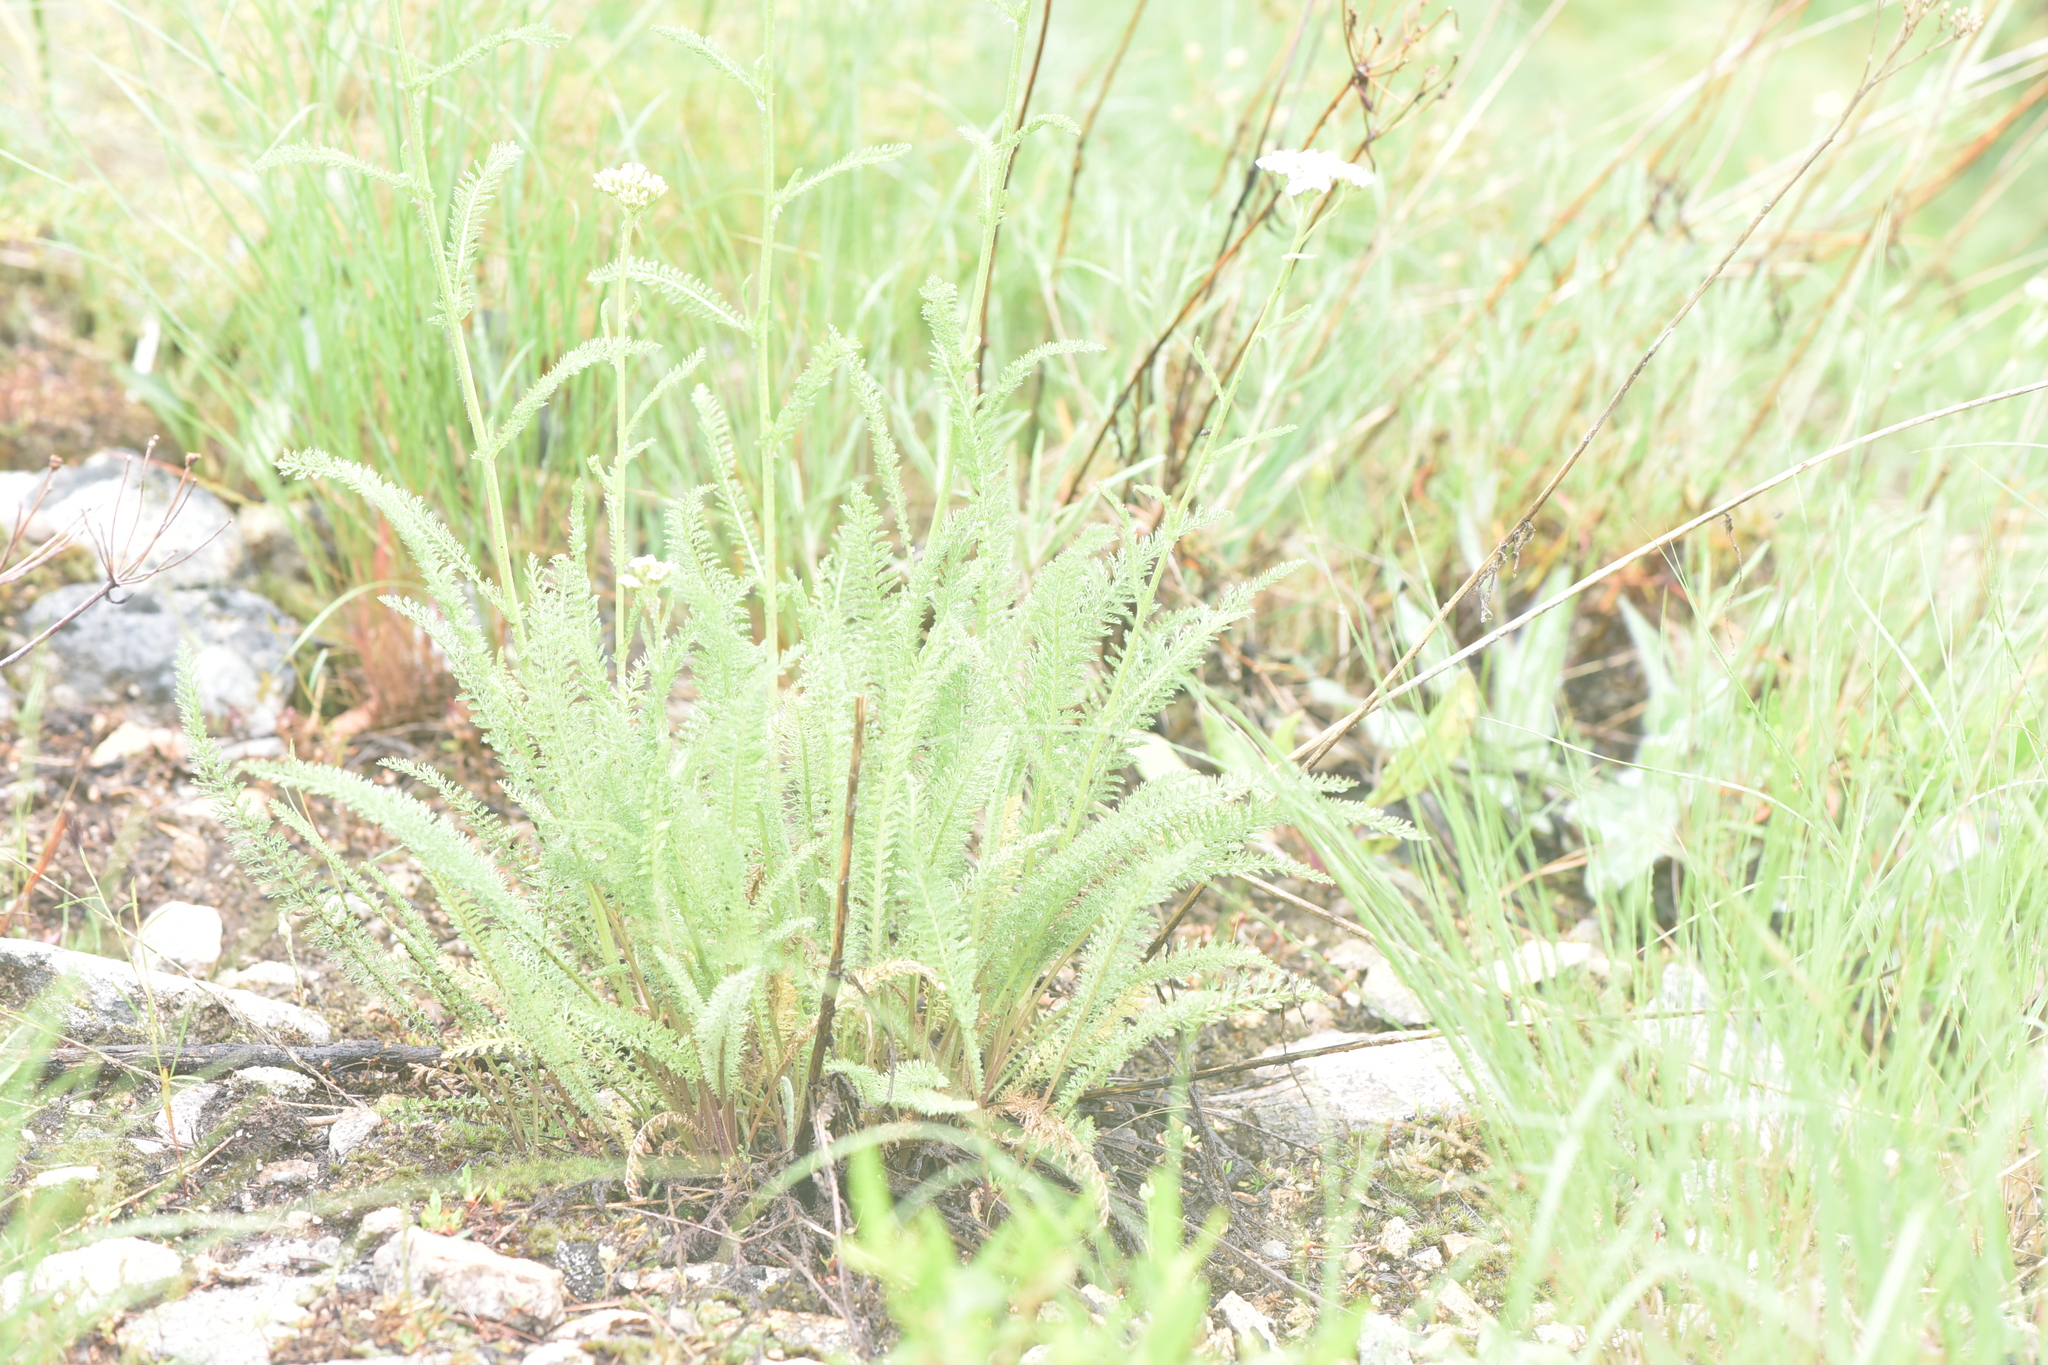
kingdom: Plantae
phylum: Tracheophyta
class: Magnoliopsida
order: Asterales
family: Asteraceae
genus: Achillea
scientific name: Achillea millefolium
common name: Yarrow
